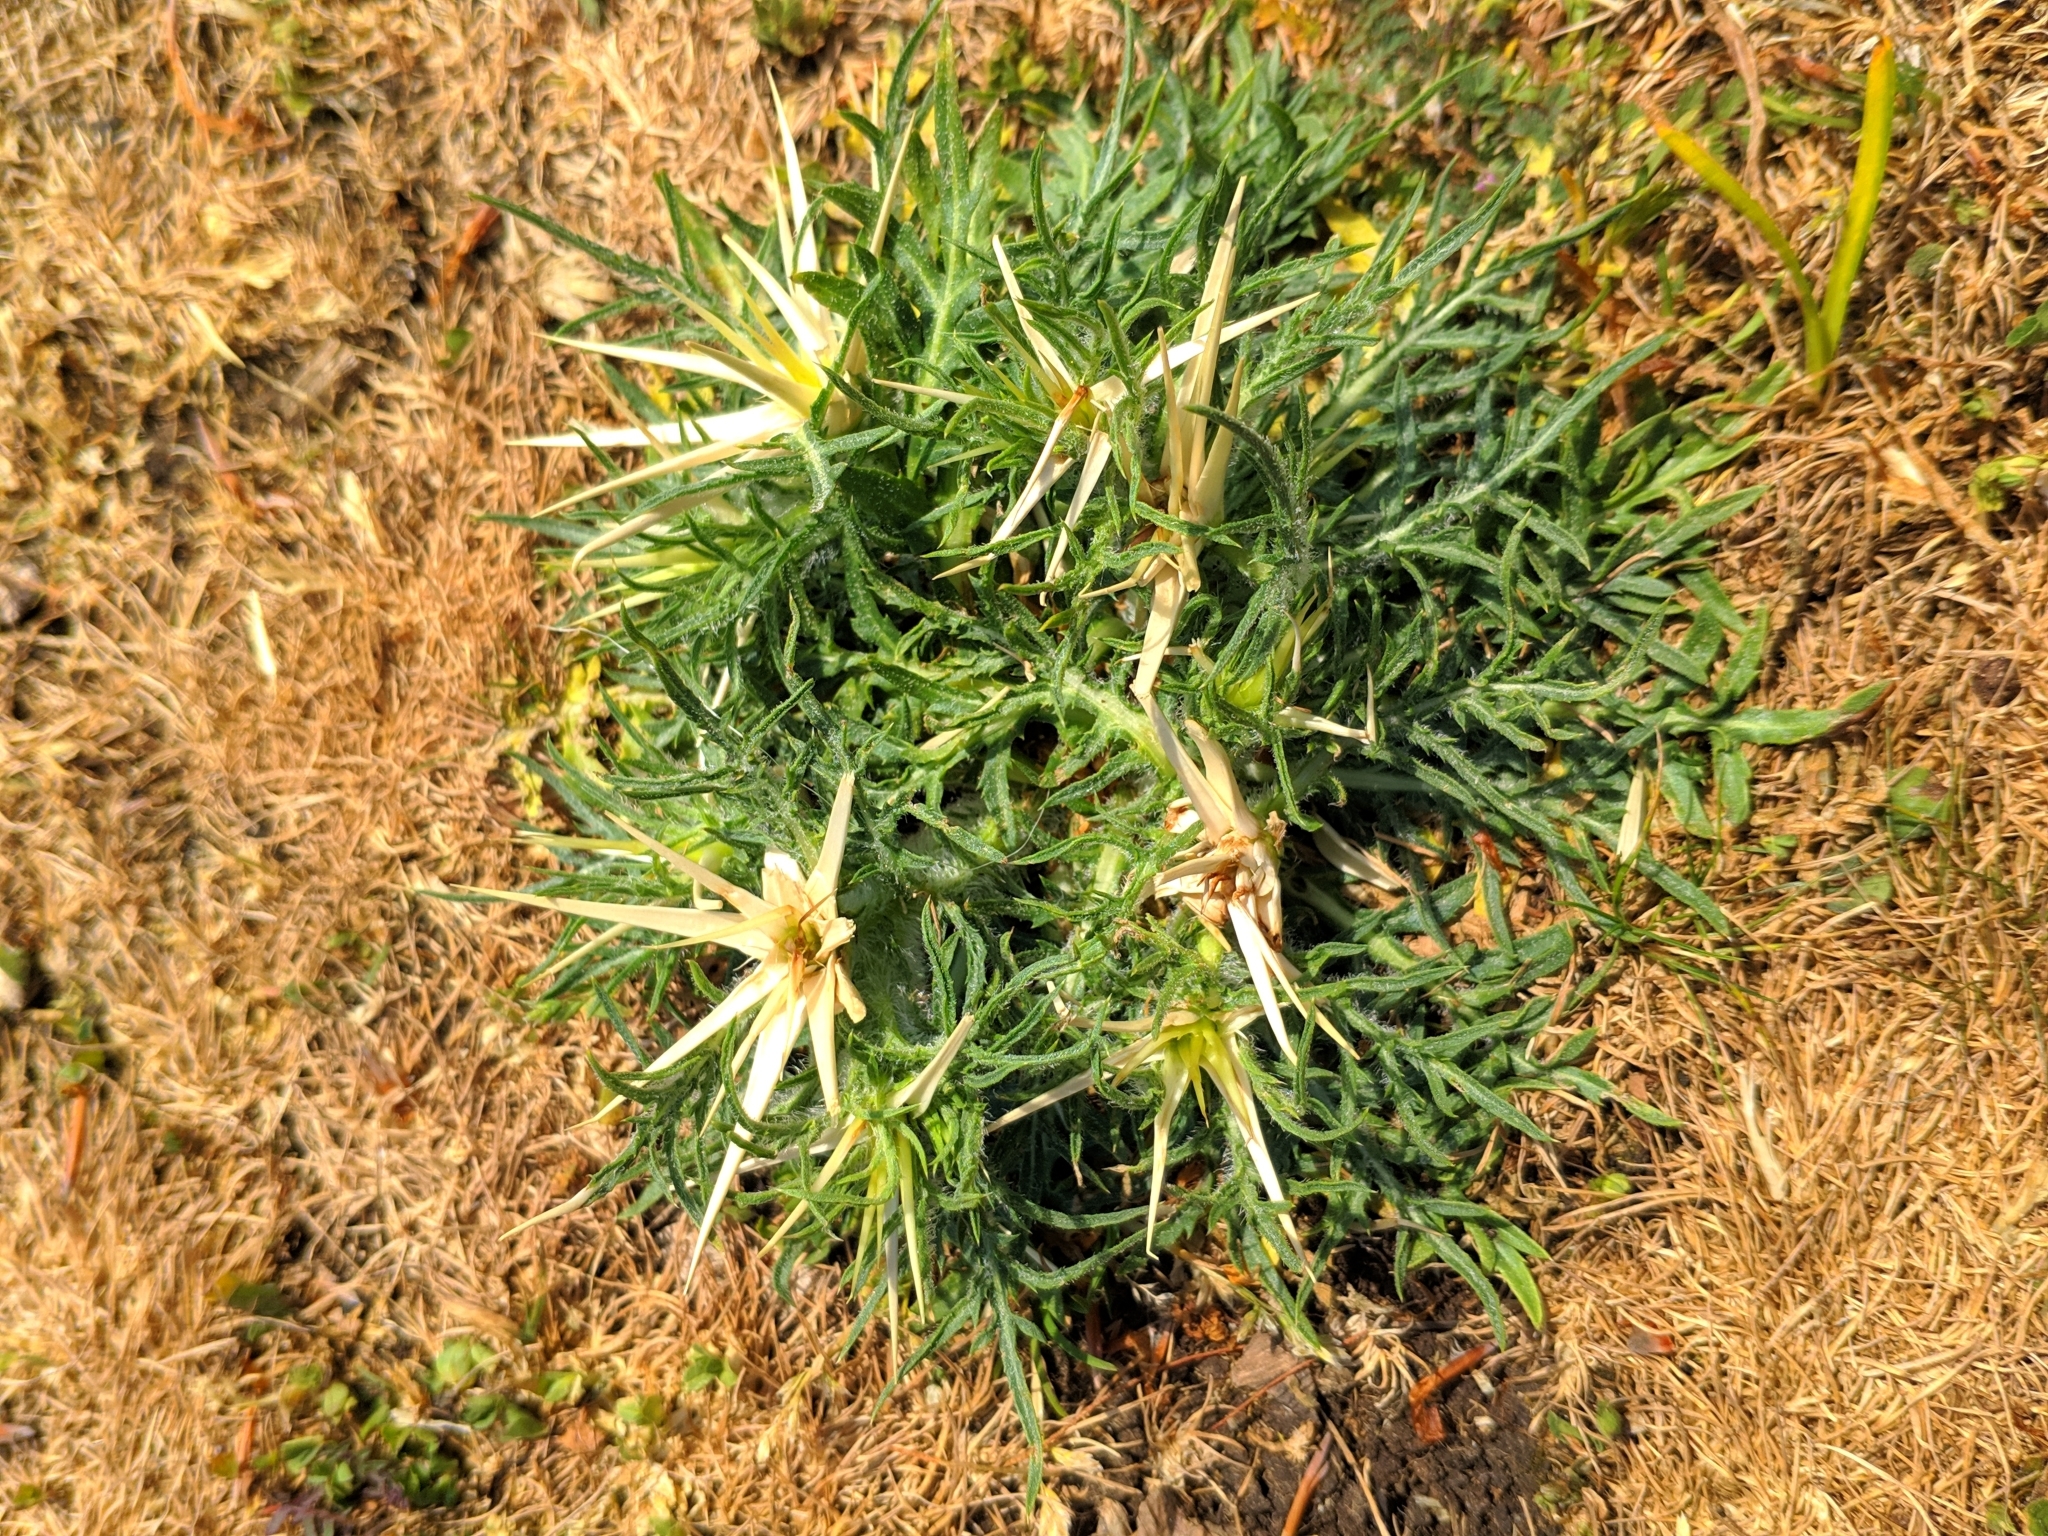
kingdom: Plantae
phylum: Tracheophyta
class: Magnoliopsida
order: Asterales
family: Asteraceae
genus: Centaurea
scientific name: Centaurea calcitrapa
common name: Red star-thistle
